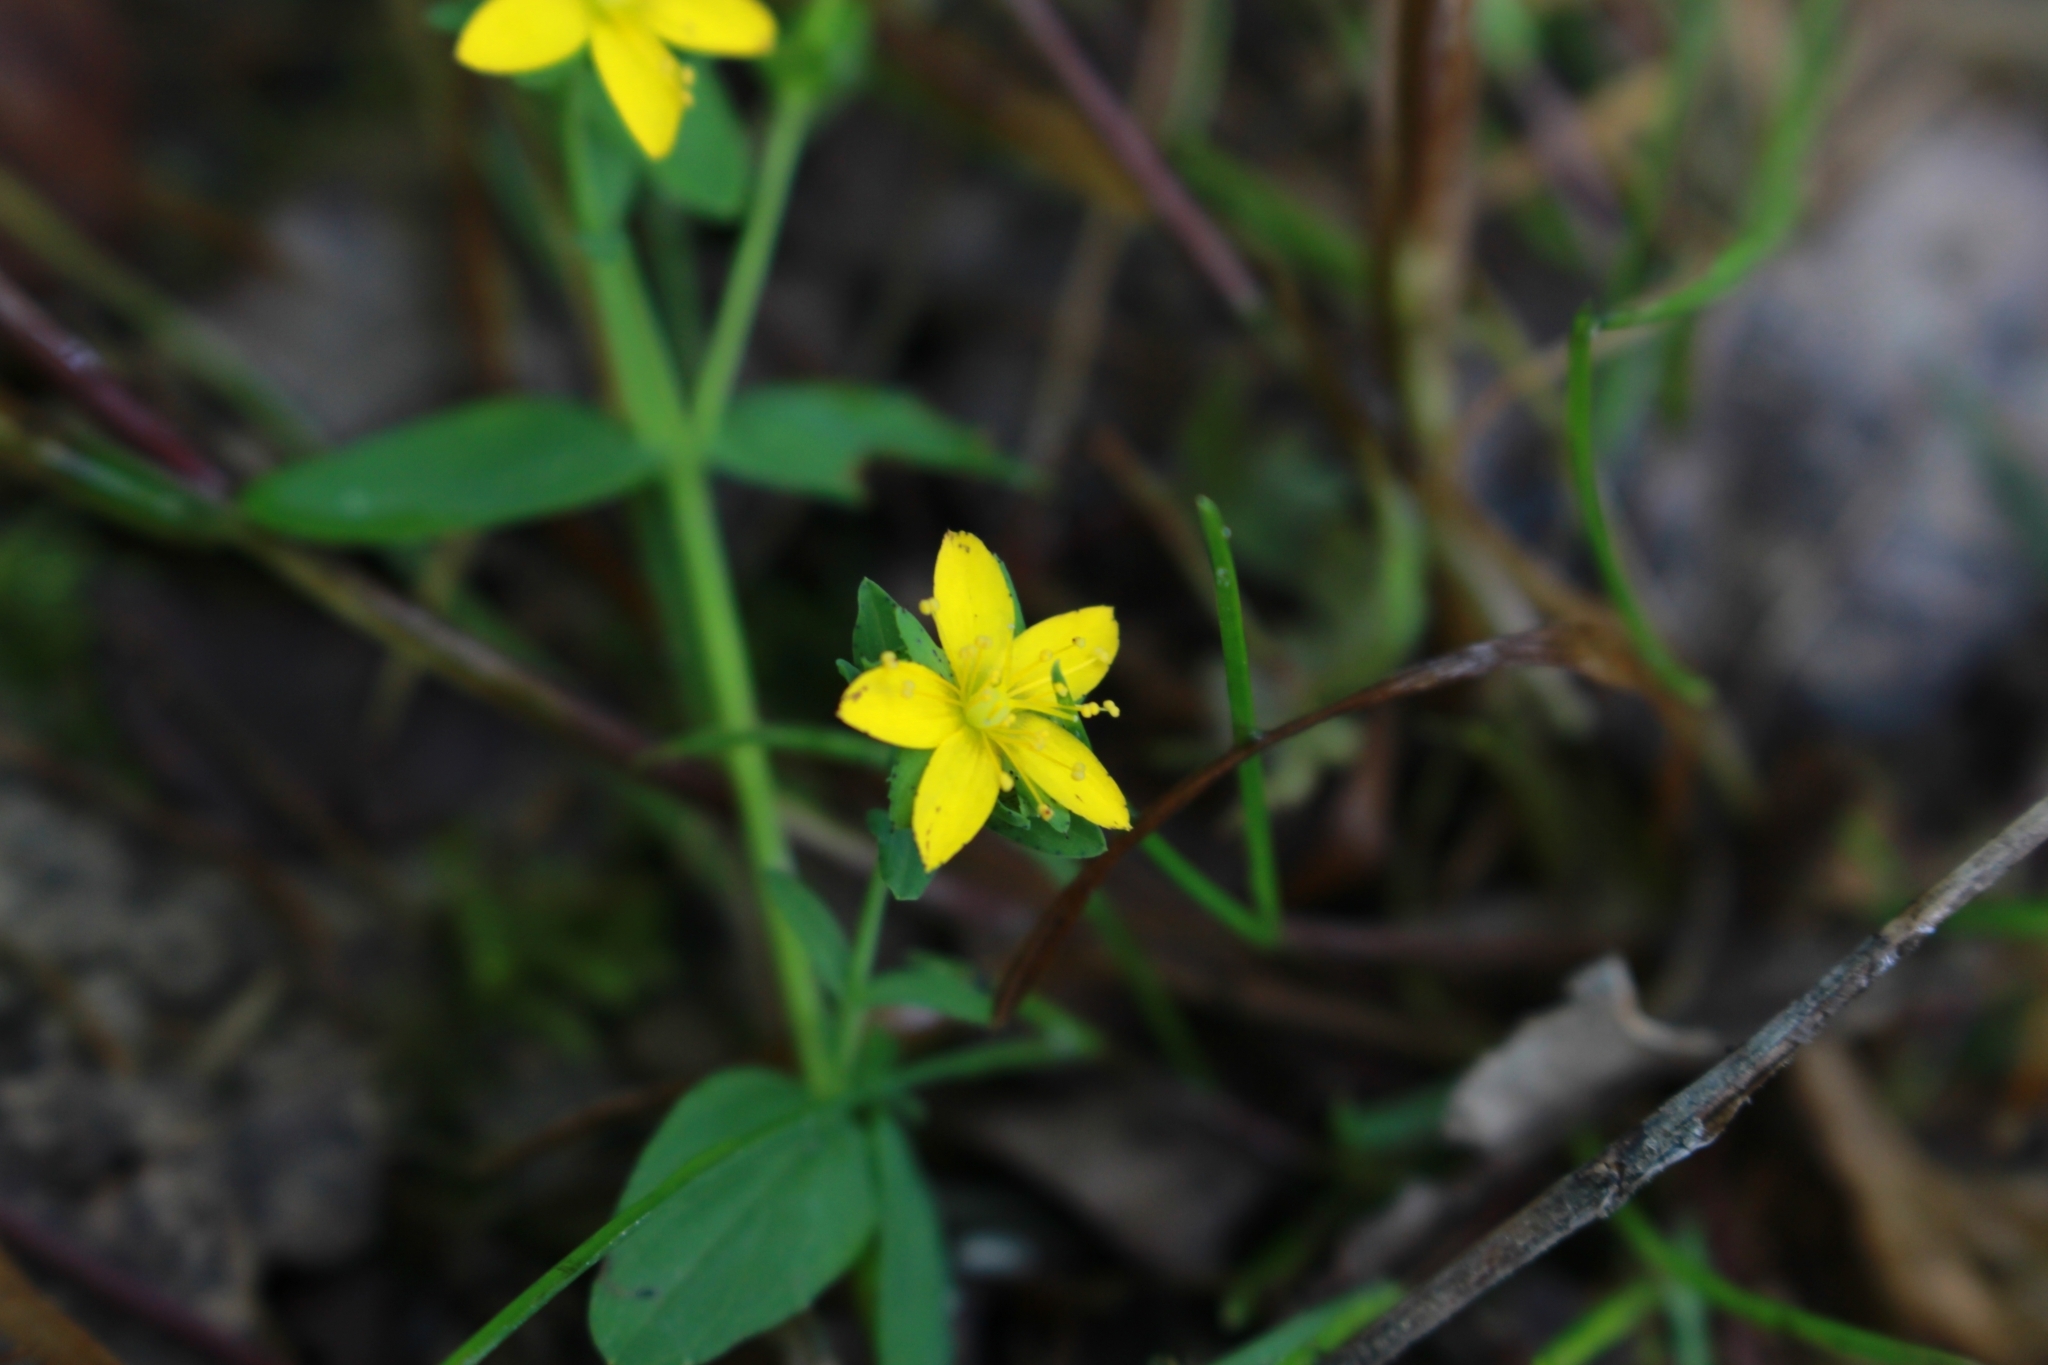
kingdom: Plantae
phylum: Tracheophyta
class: Magnoliopsida
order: Malpighiales
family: Hypericaceae
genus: Hypericum
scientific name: Hypericum humifusum
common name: Trailing st. john's-wort
